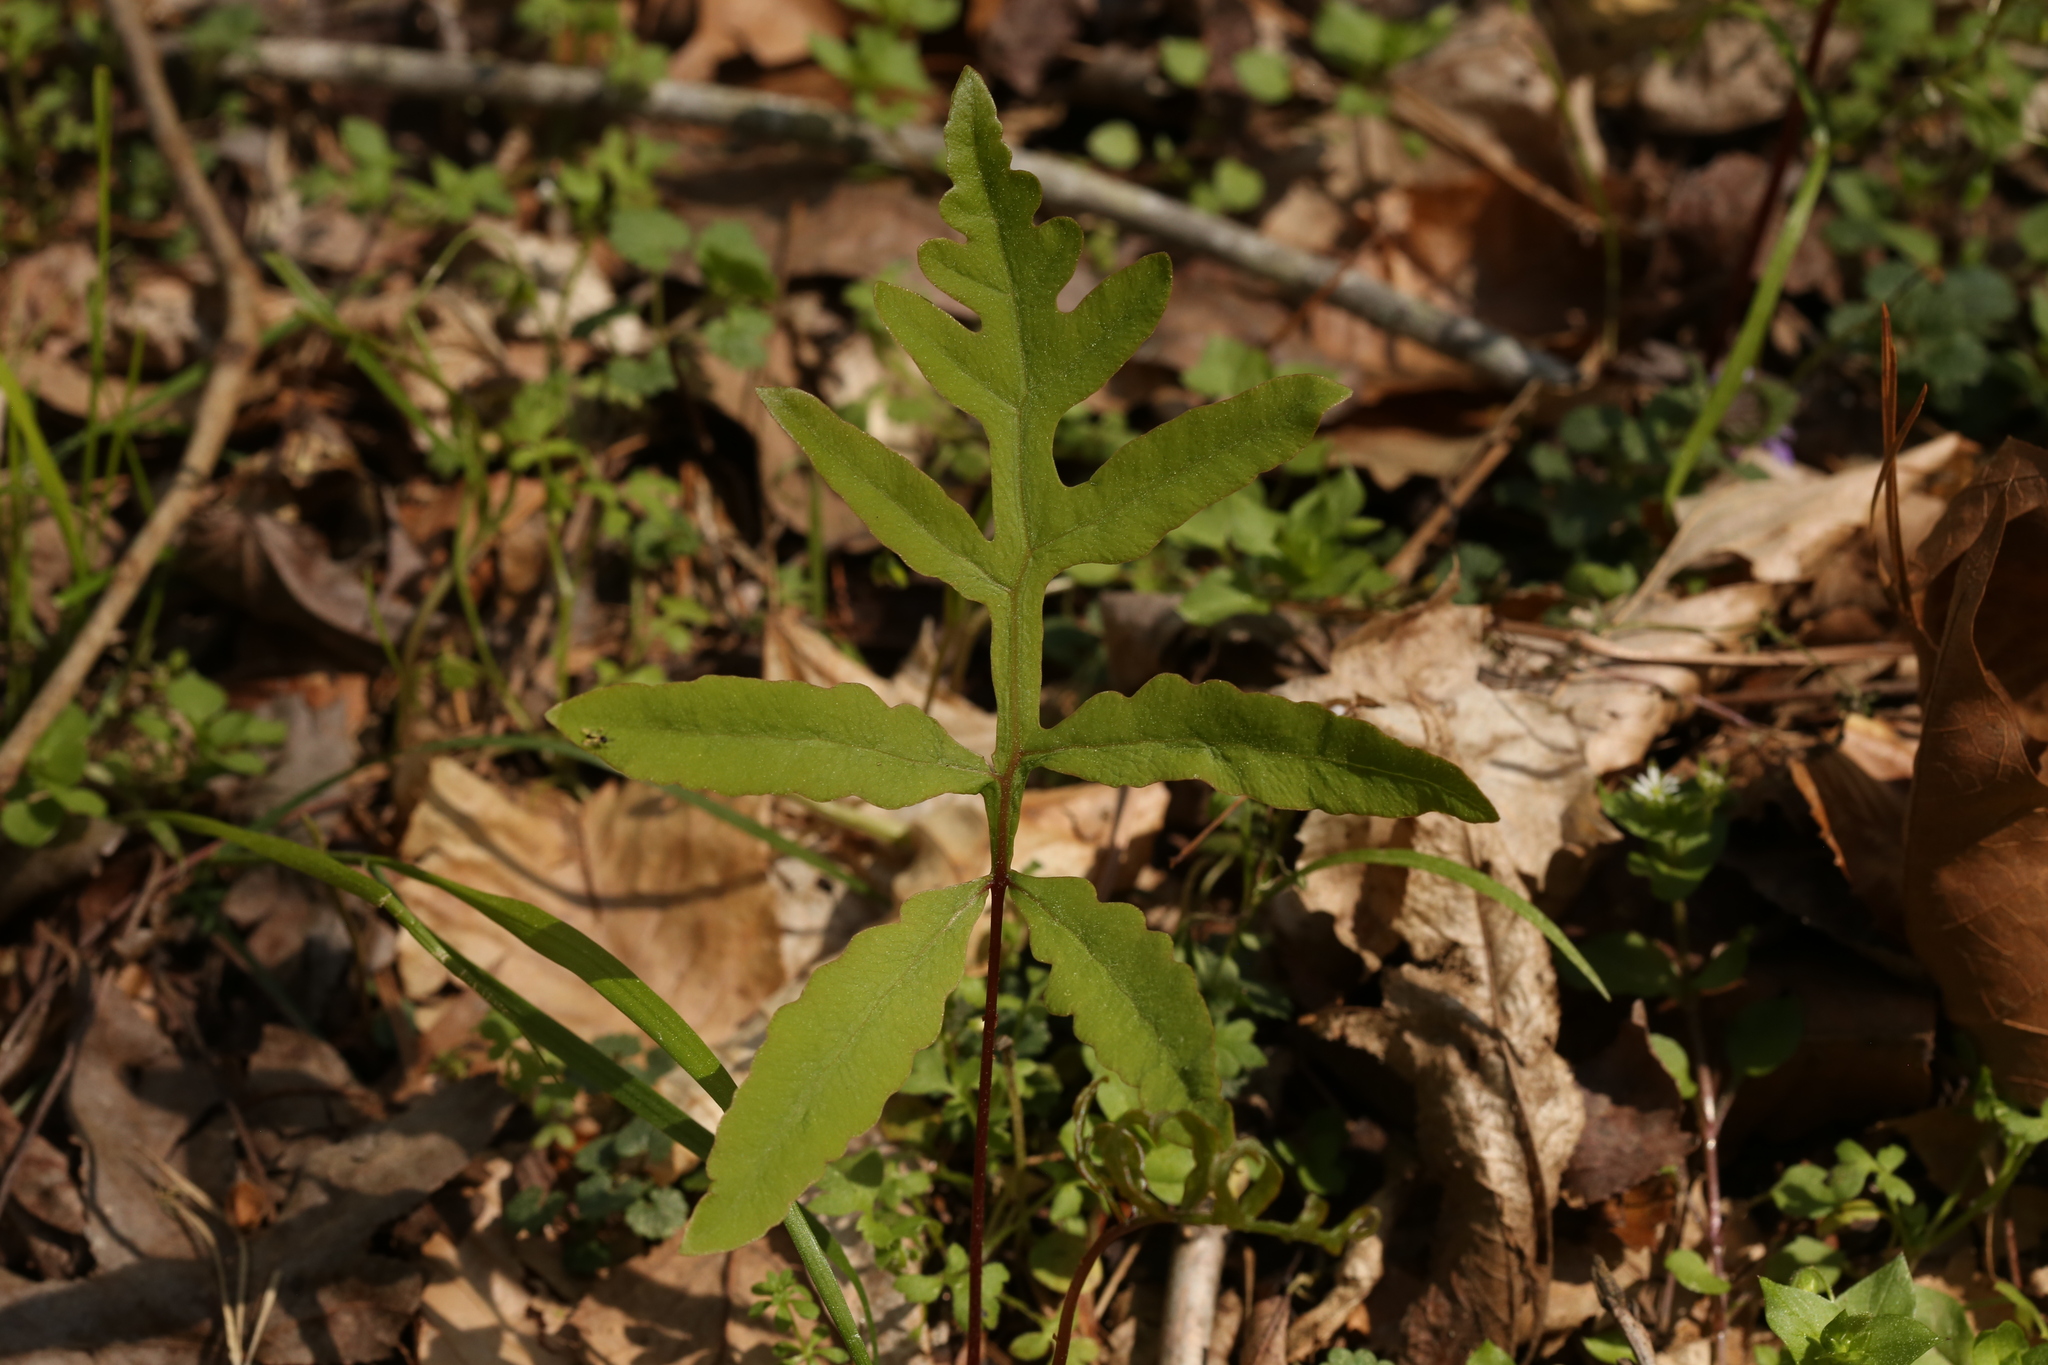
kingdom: Plantae
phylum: Tracheophyta
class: Polypodiopsida
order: Polypodiales
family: Onocleaceae
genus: Onoclea
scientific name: Onoclea sensibilis
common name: Sensitive fern
